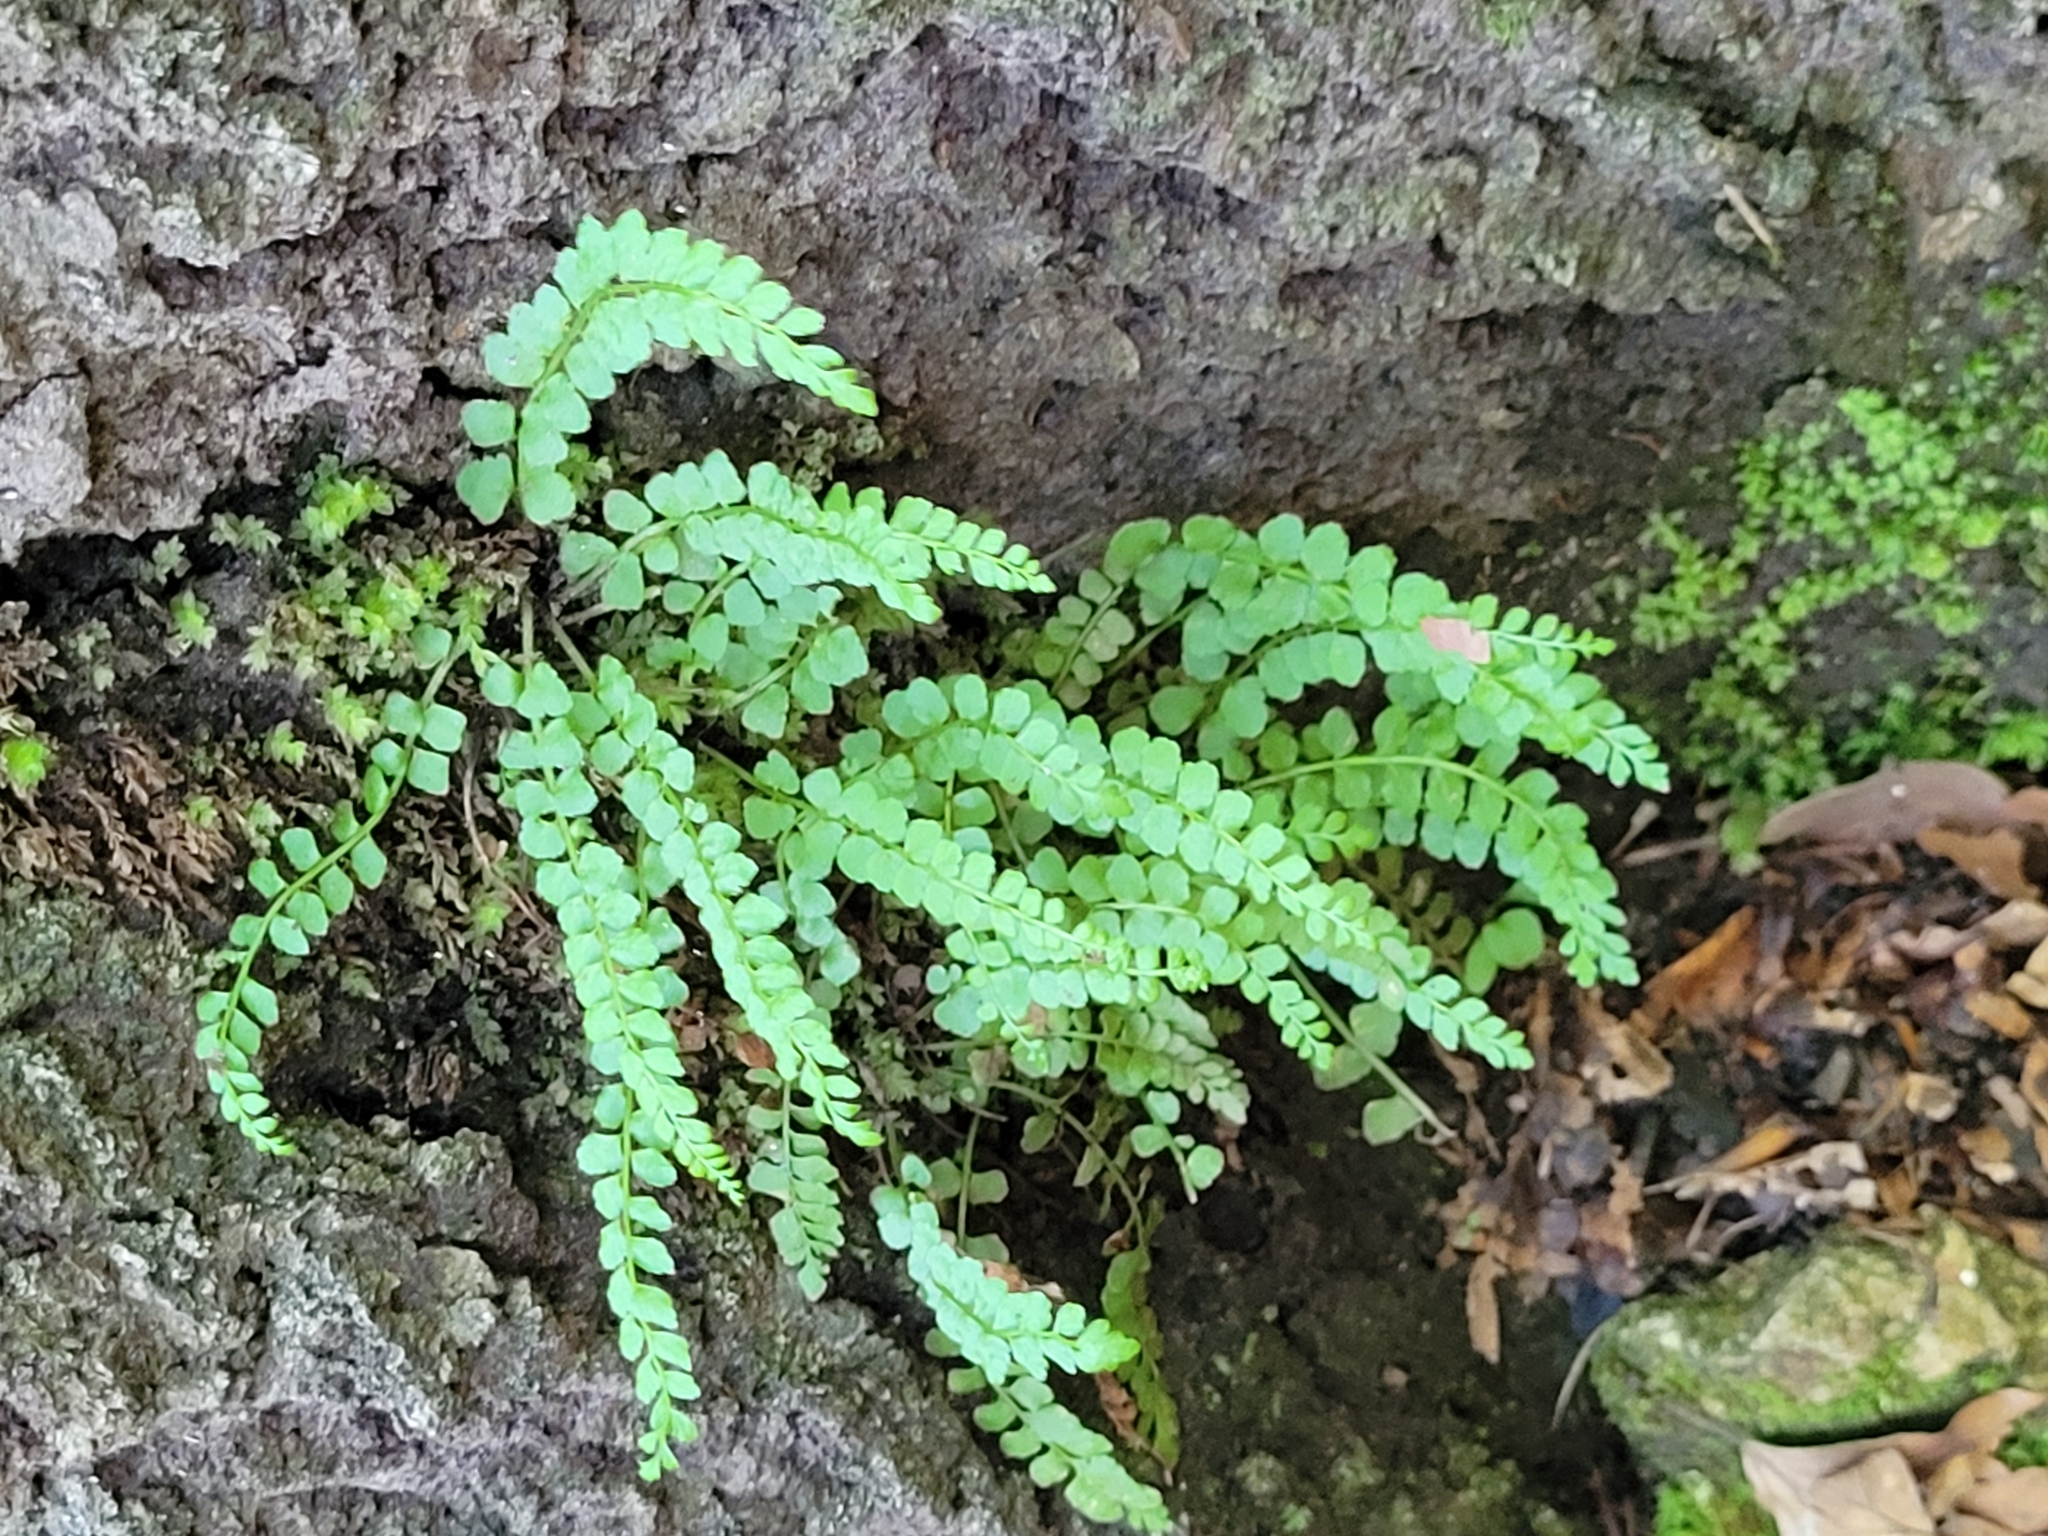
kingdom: Plantae
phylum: Tracheophyta
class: Polypodiopsida
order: Polypodiales
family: Aspleniaceae
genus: Asplenium
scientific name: Asplenium viride
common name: Green spleenwort
